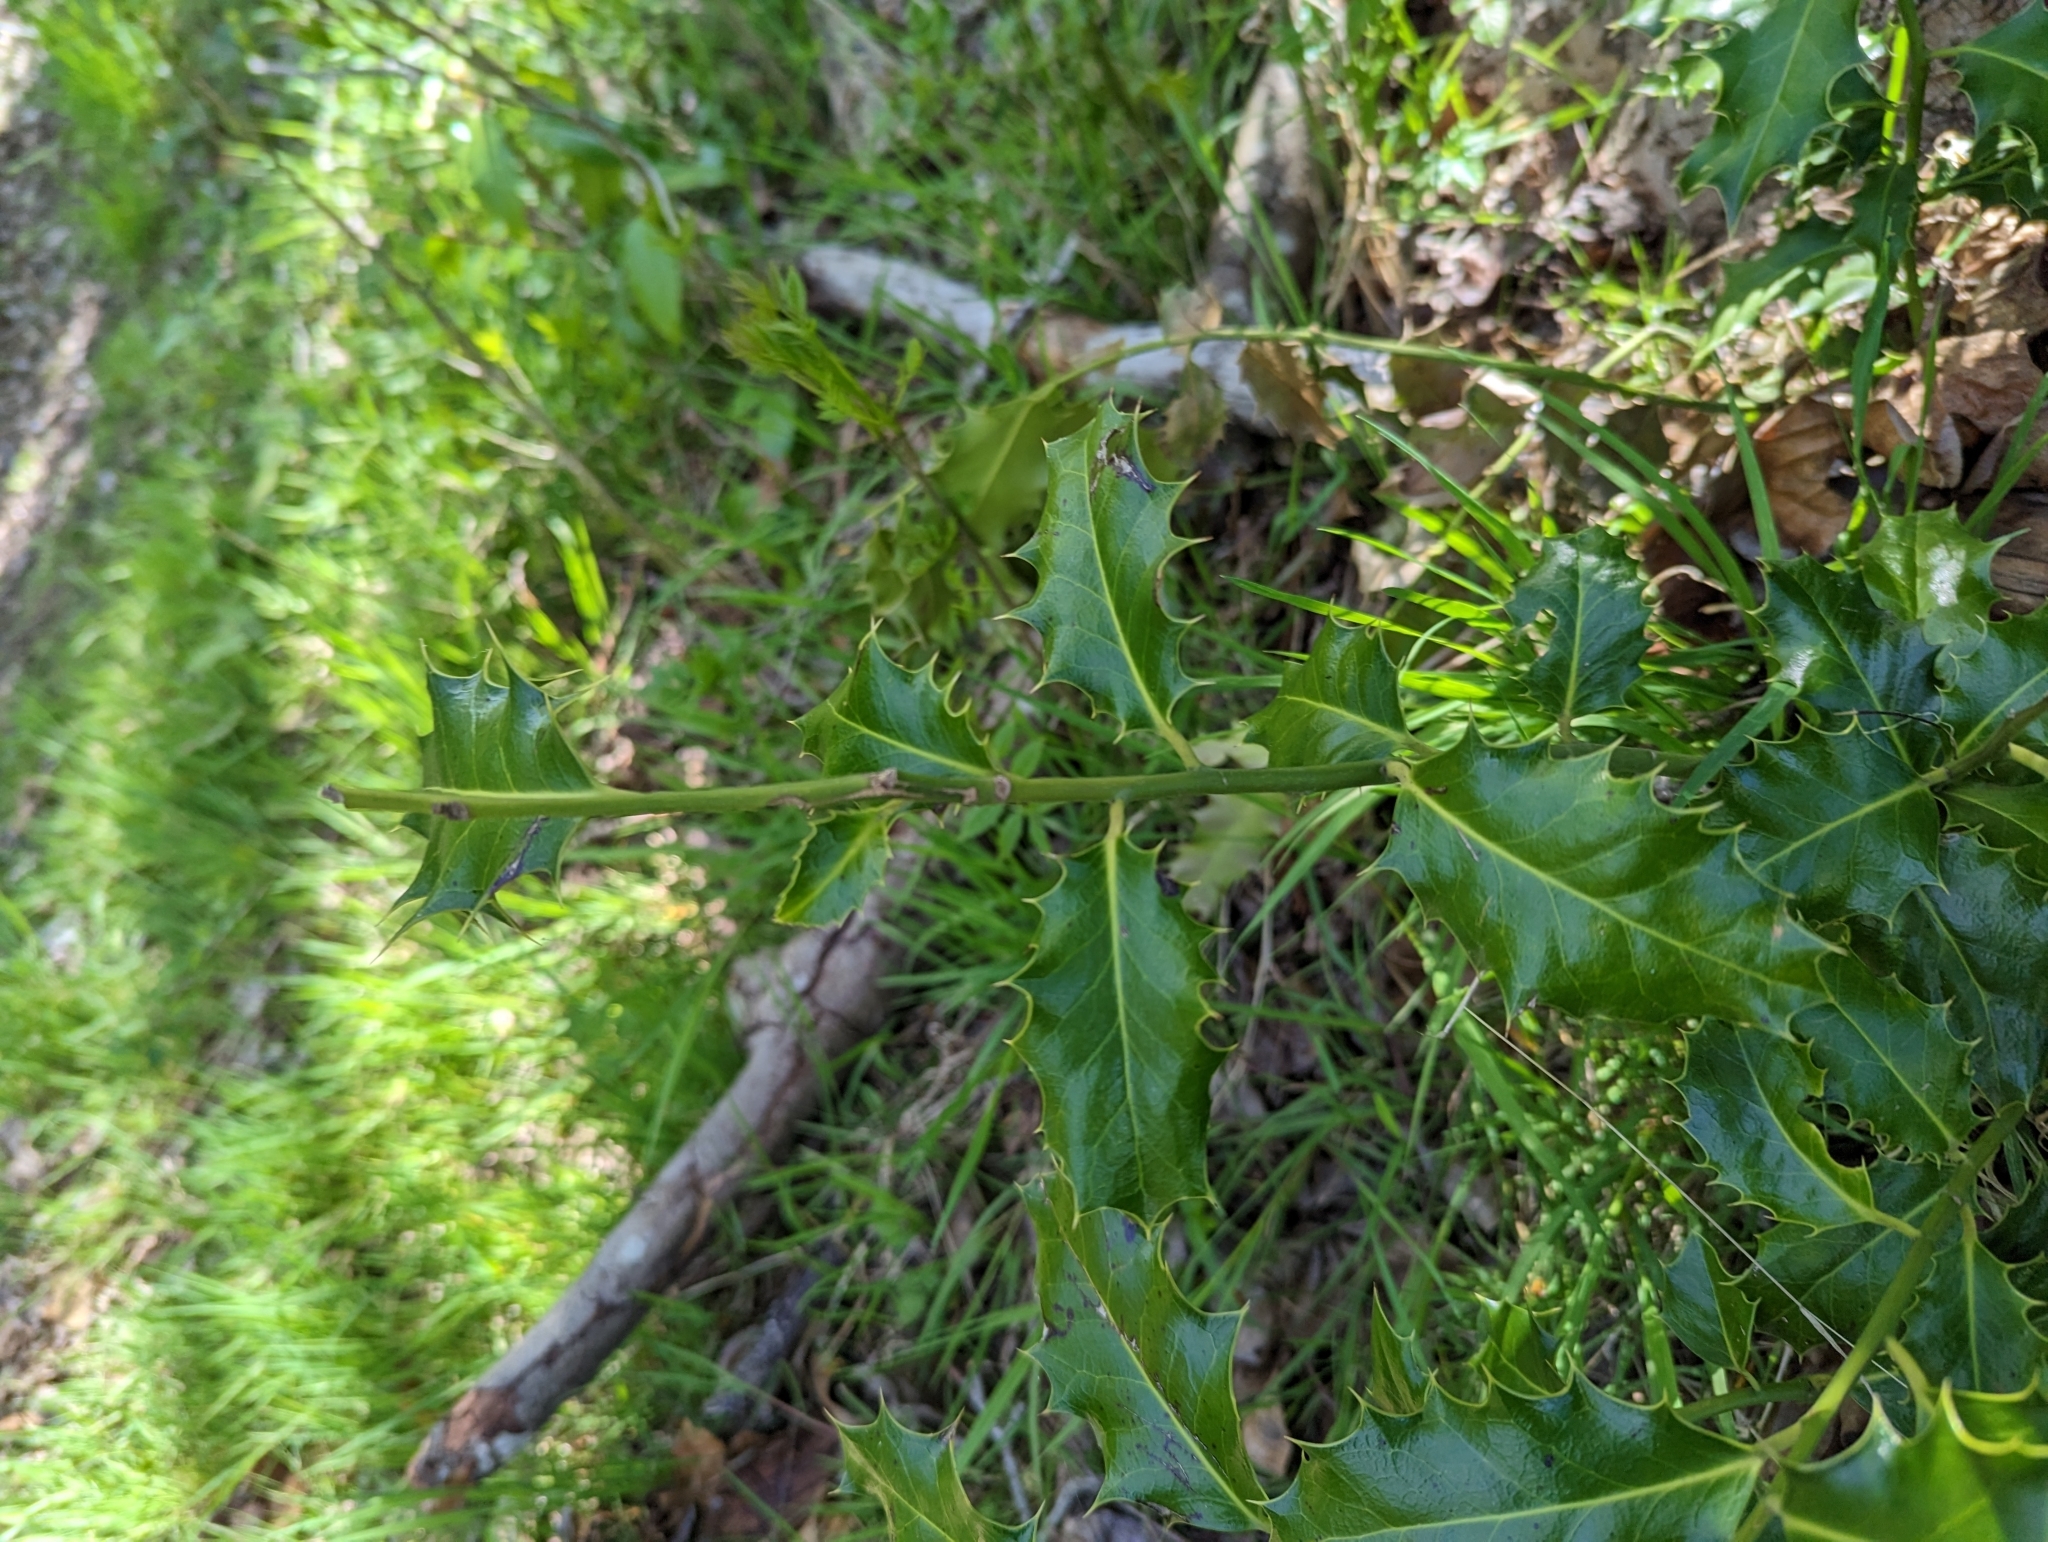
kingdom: Plantae
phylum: Tracheophyta
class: Magnoliopsida
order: Aquifoliales
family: Aquifoliaceae
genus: Ilex
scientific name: Ilex aquifolium
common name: English holly
